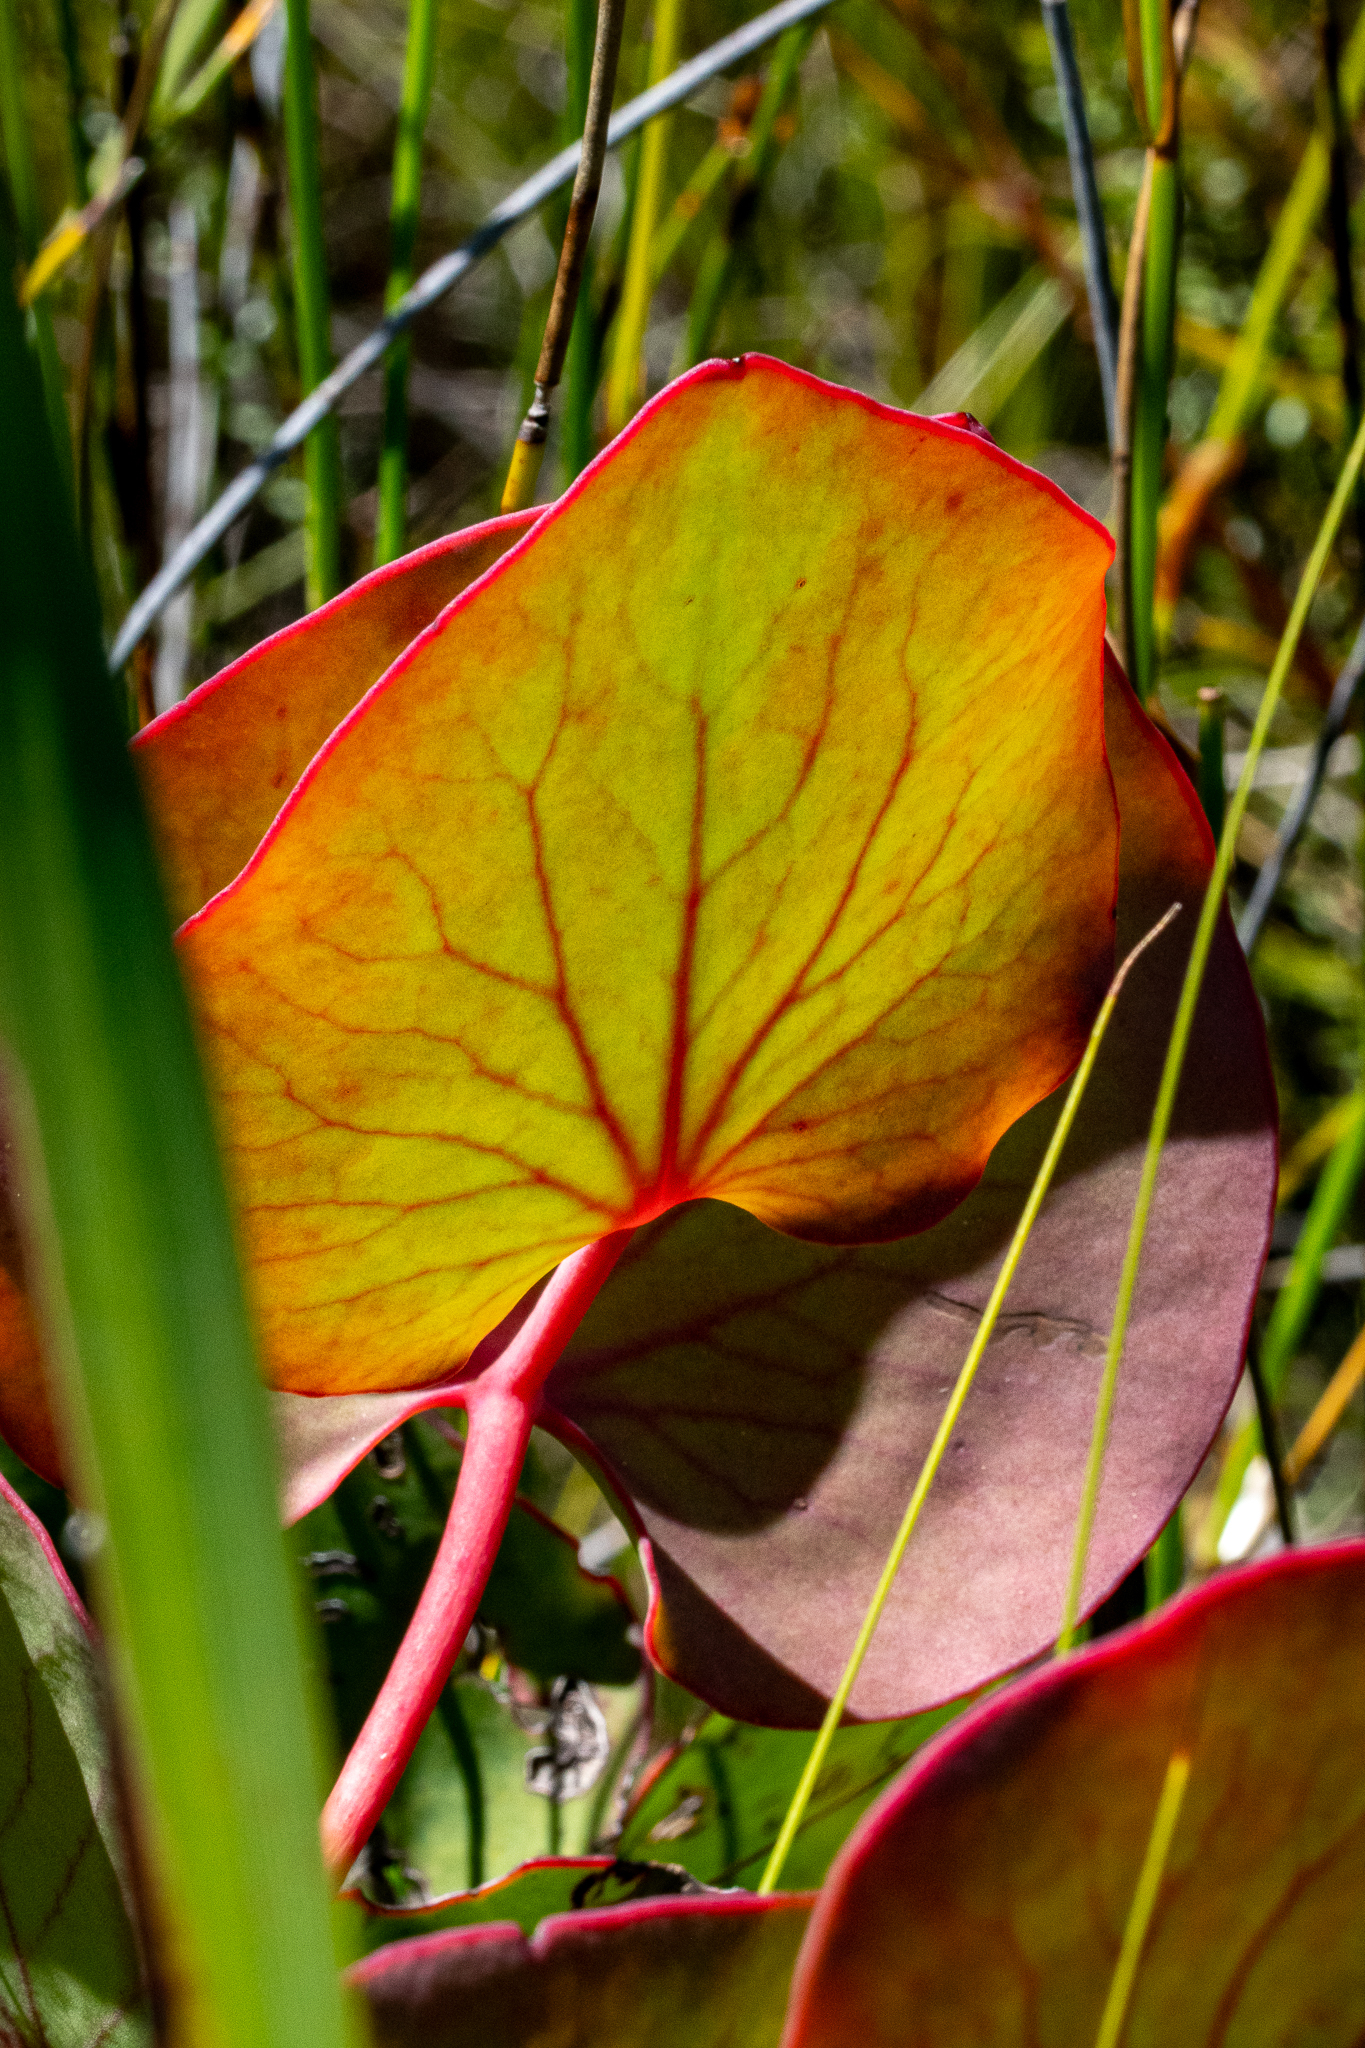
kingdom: Plantae
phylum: Tracheophyta
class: Magnoliopsida
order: Proteales
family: Proteaceae
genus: Protea
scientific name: Protea cordata
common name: Heart-leaf sugarbush
